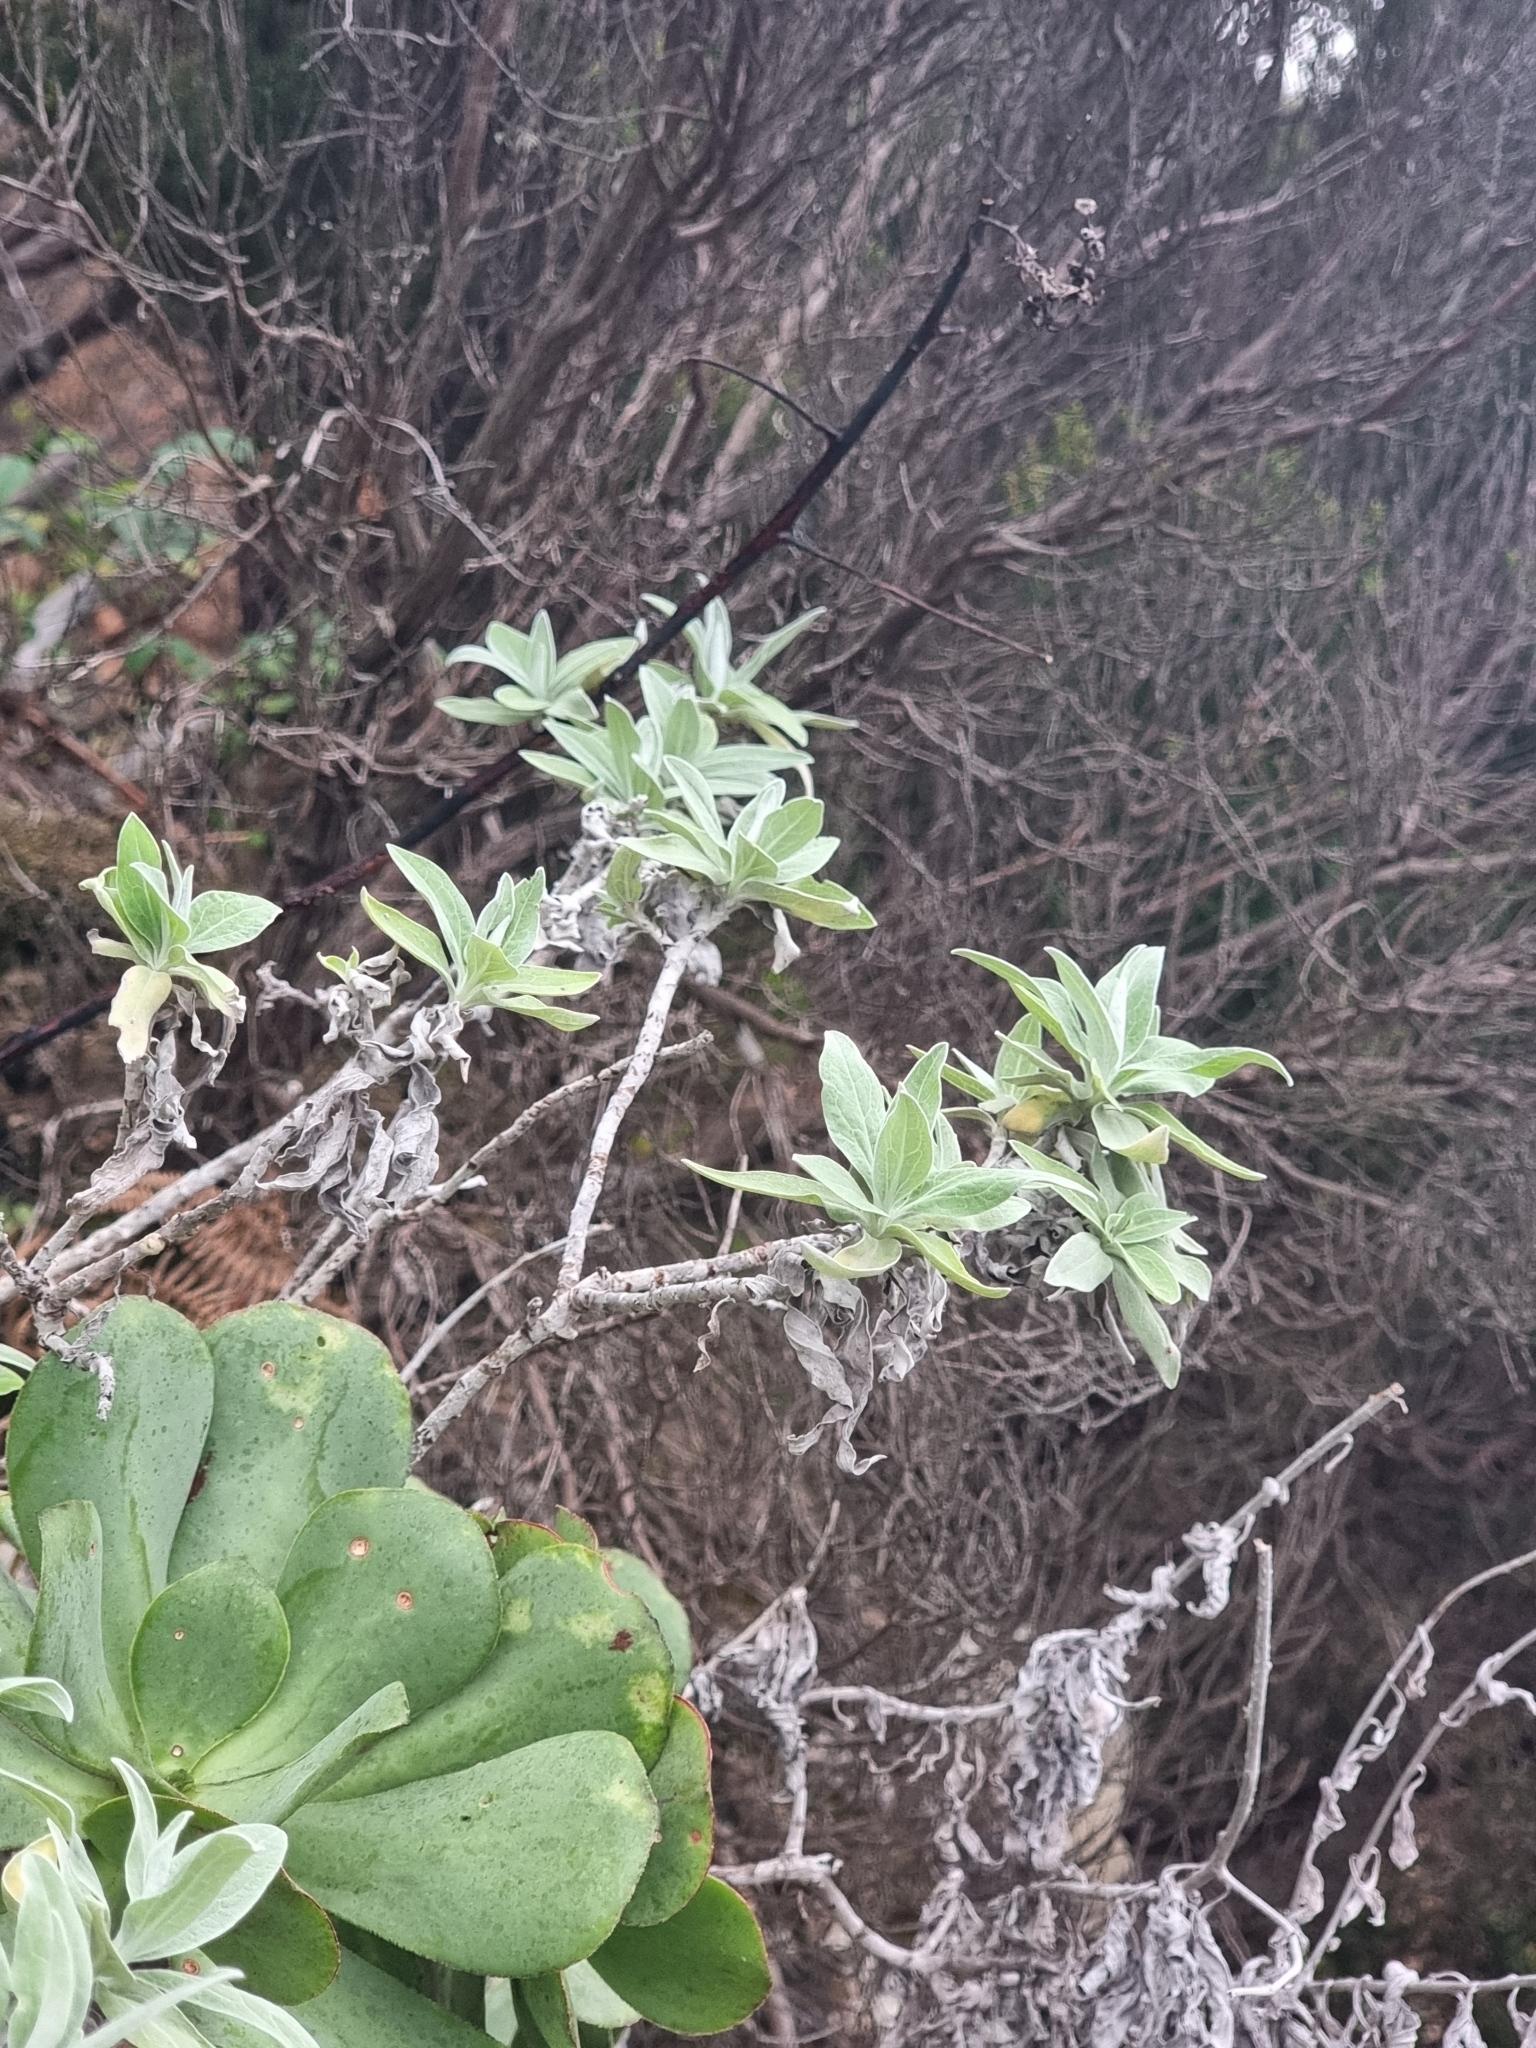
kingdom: Plantae
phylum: Tracheophyta
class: Magnoliopsida
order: Asterales
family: Asteraceae
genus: Helichrysum
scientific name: Helichrysum melaleucum
